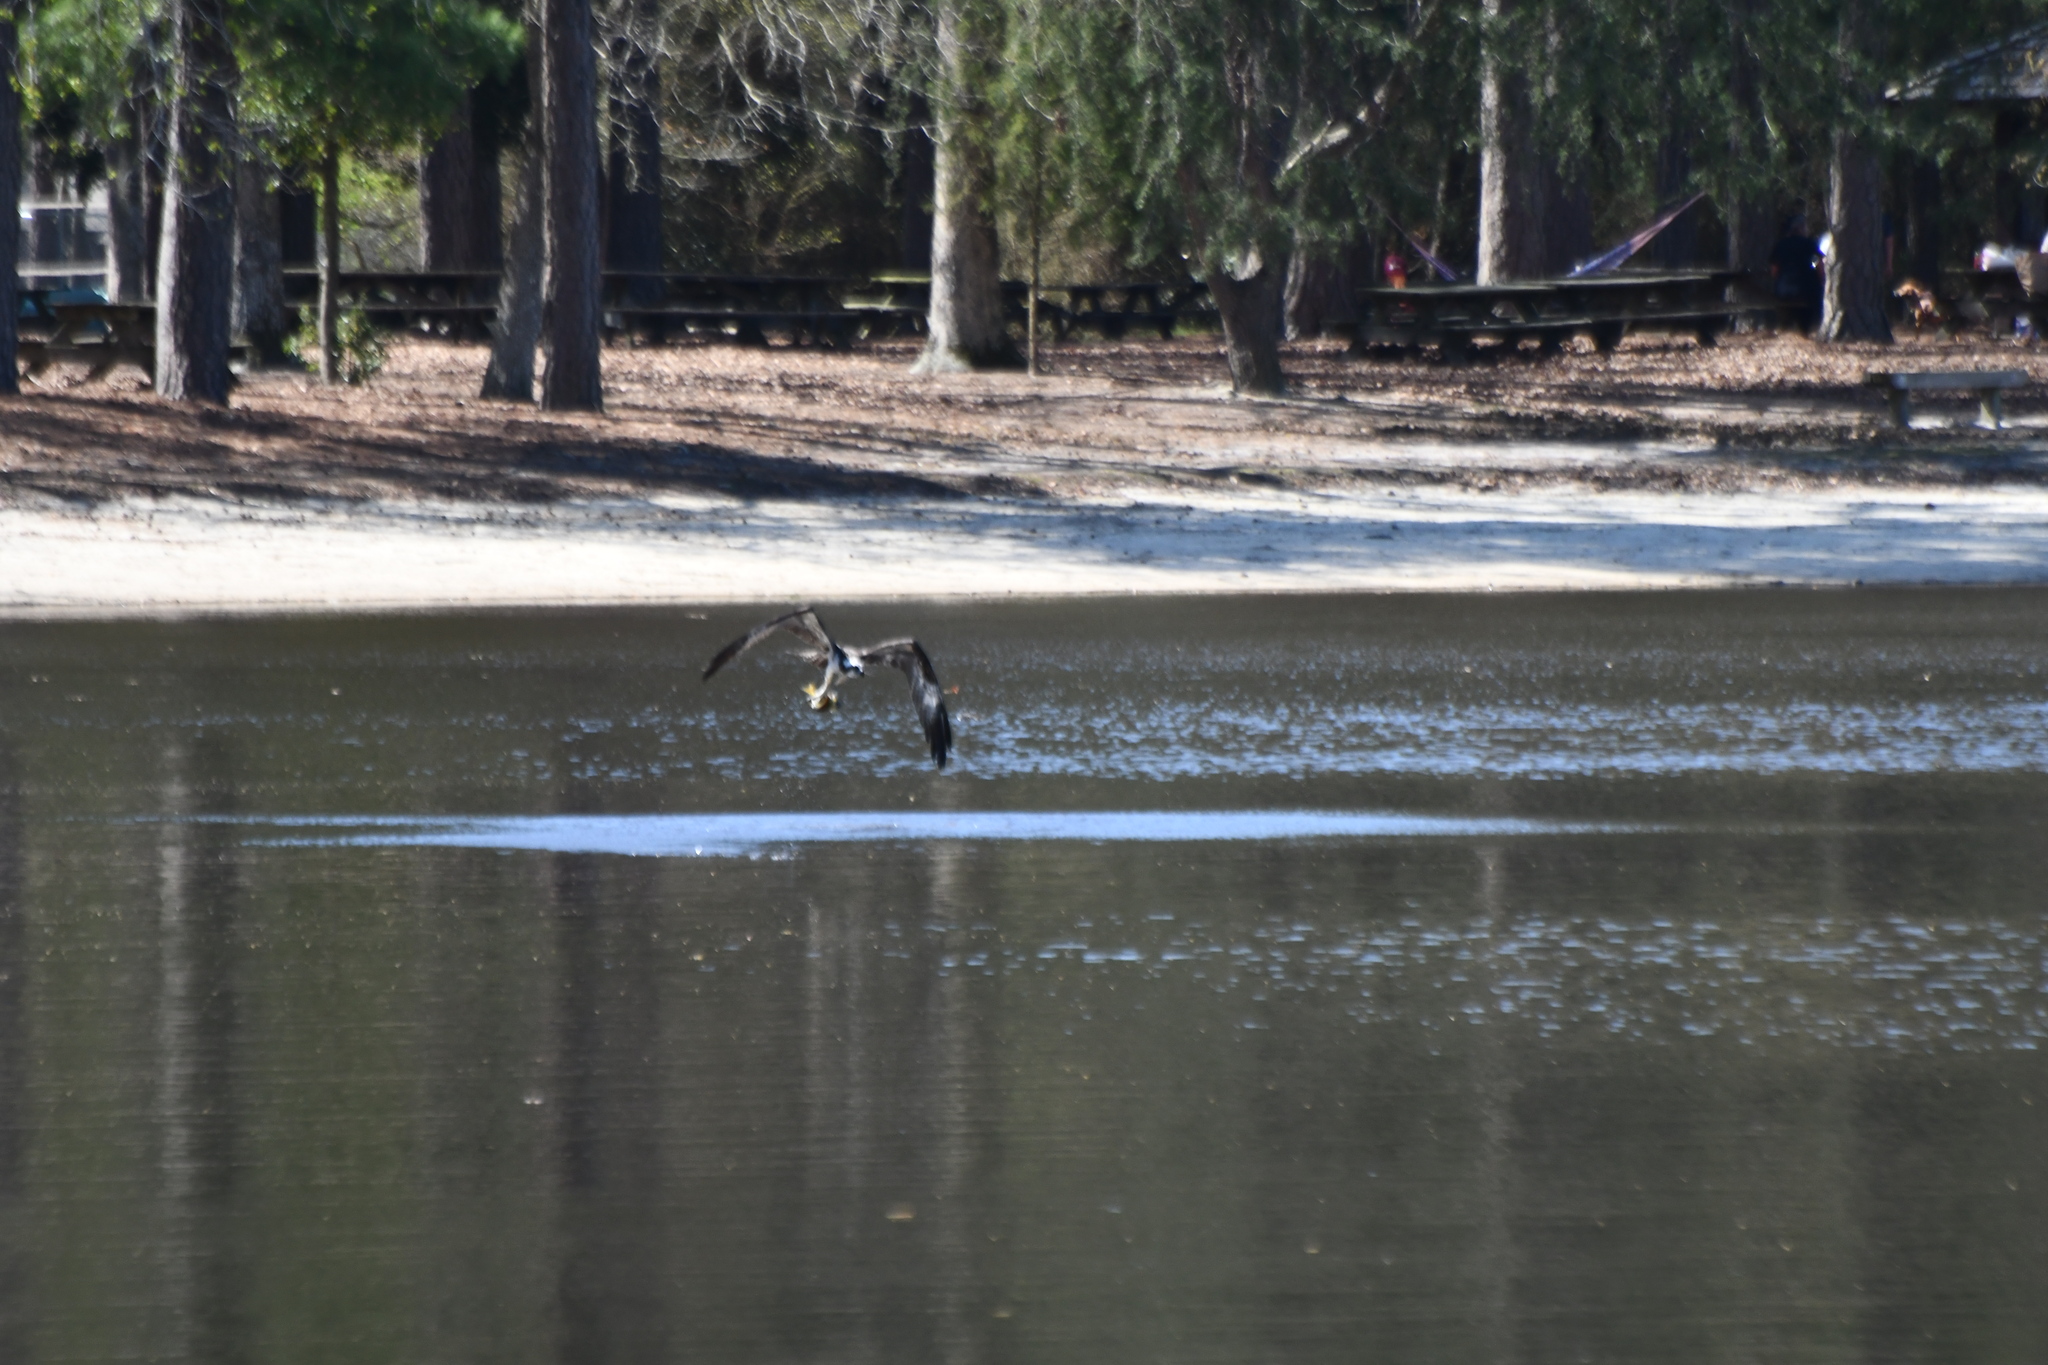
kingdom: Animalia
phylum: Chordata
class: Aves
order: Accipitriformes
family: Pandionidae
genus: Pandion
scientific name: Pandion haliaetus
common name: Osprey
